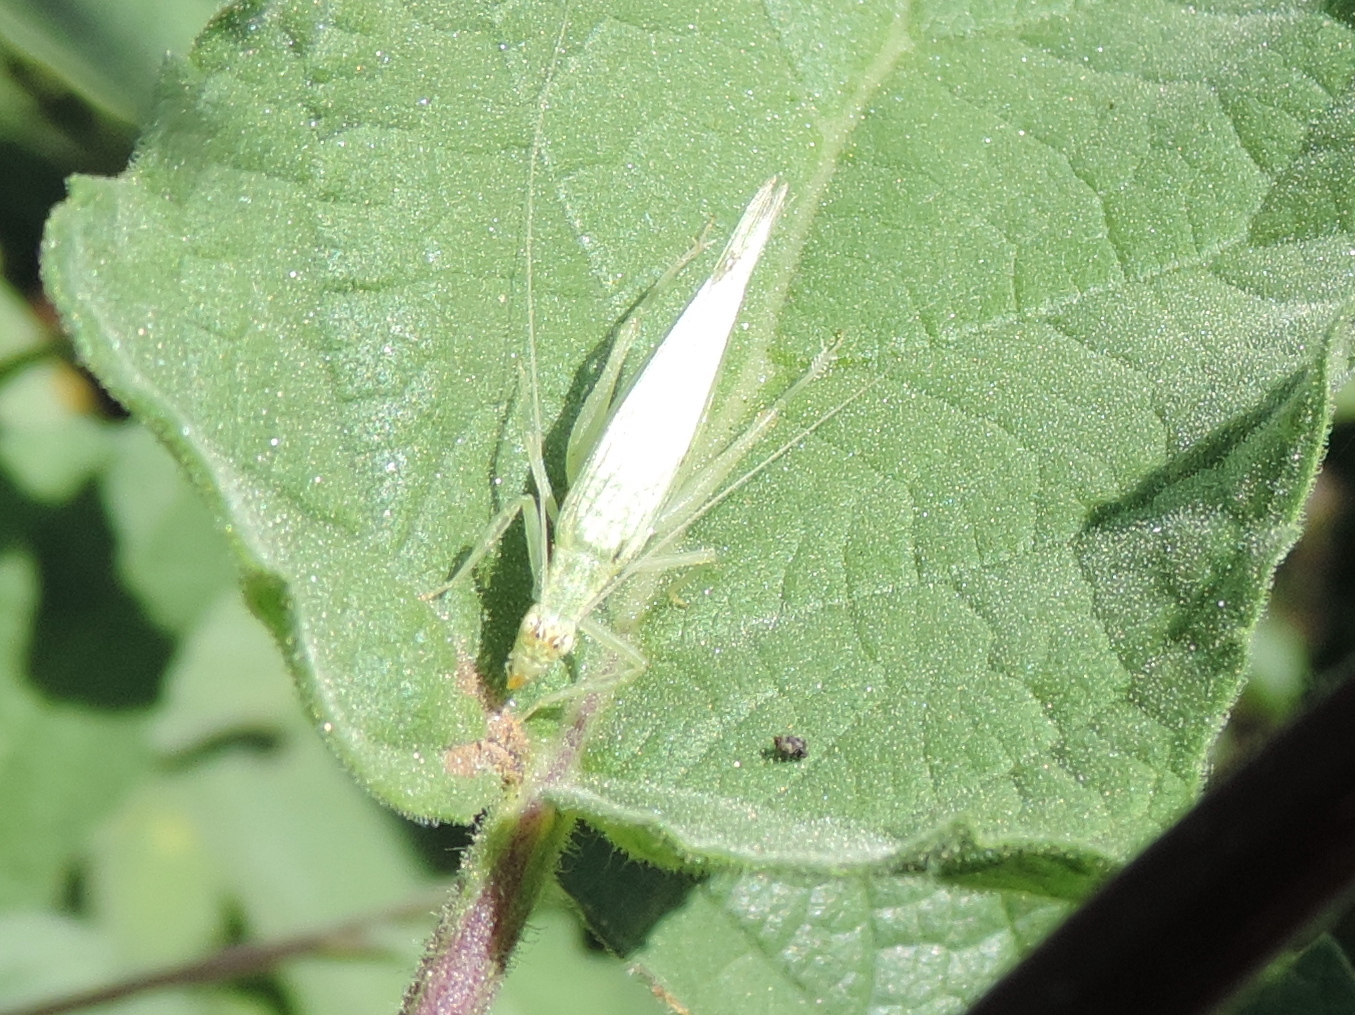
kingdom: Animalia
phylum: Arthropoda
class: Insecta
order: Orthoptera
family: Gryllidae
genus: Oecanthus
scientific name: Oecanthus
